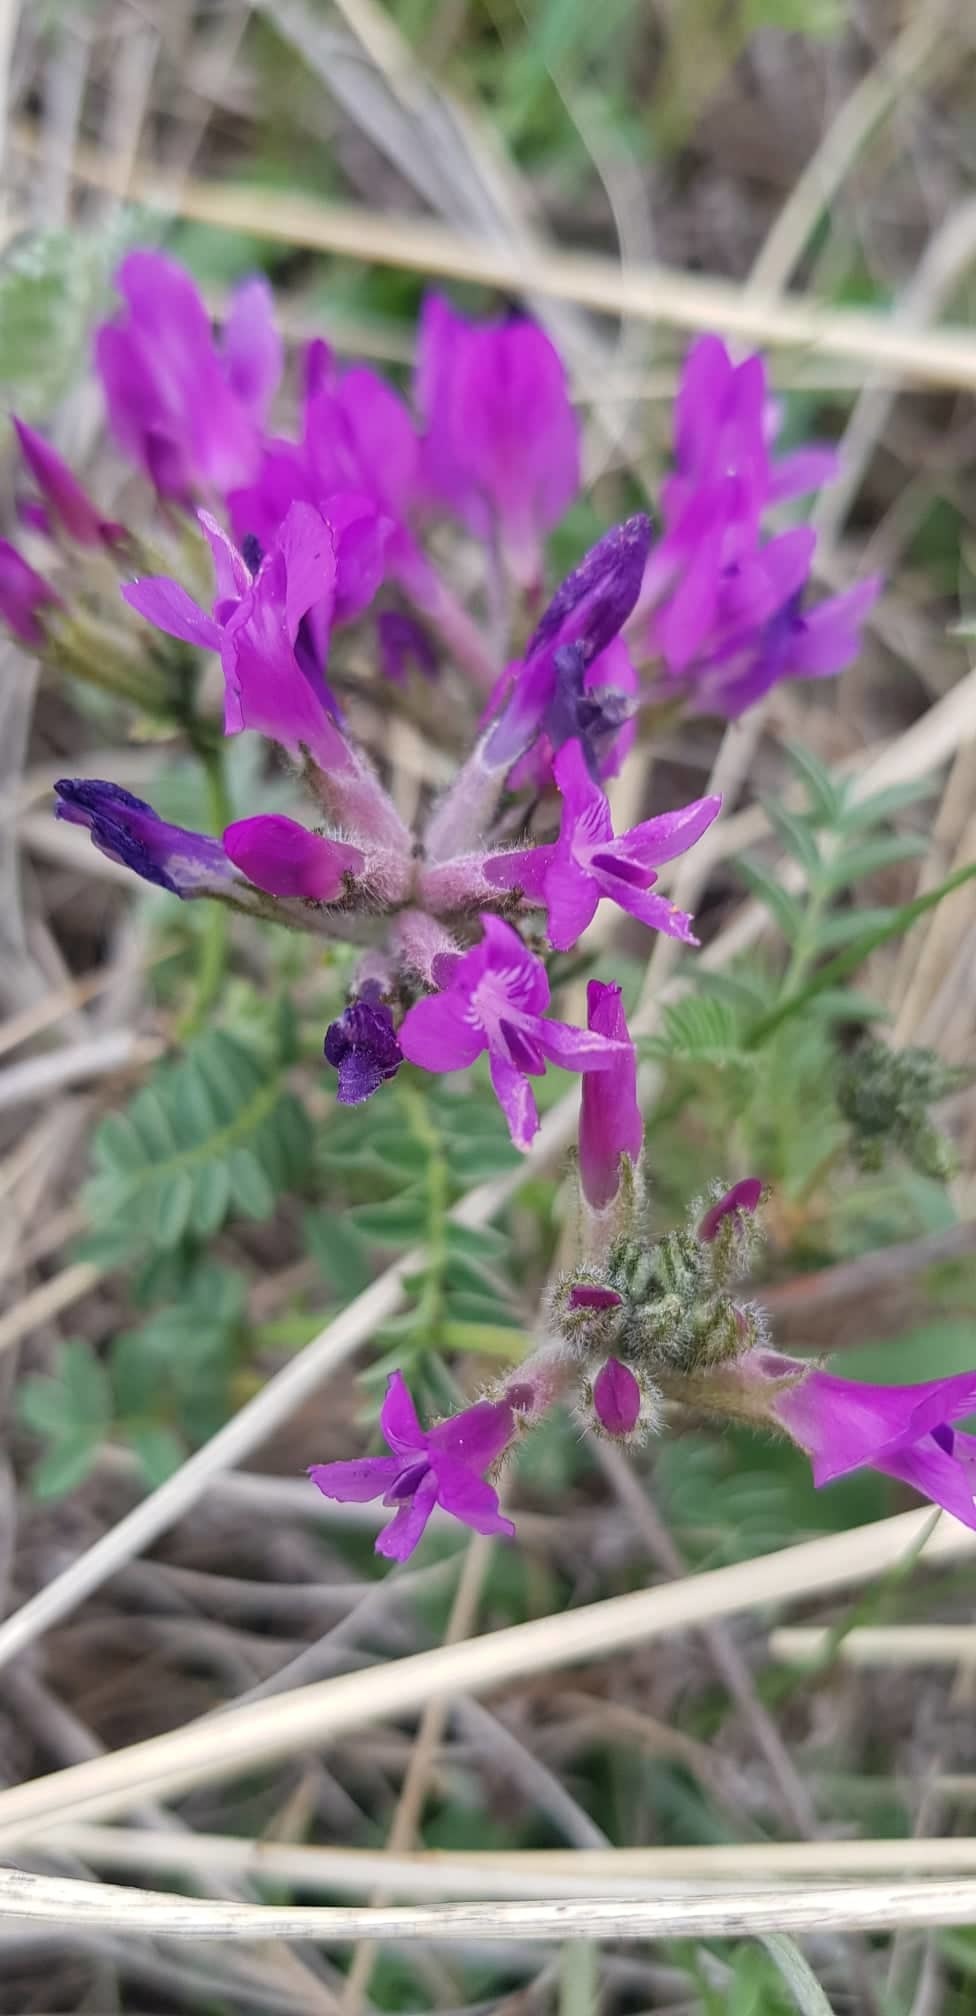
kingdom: Plantae
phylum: Tracheophyta
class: Magnoliopsida
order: Fabales
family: Fabaceae
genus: Astragalus
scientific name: Astragalus syriacus
